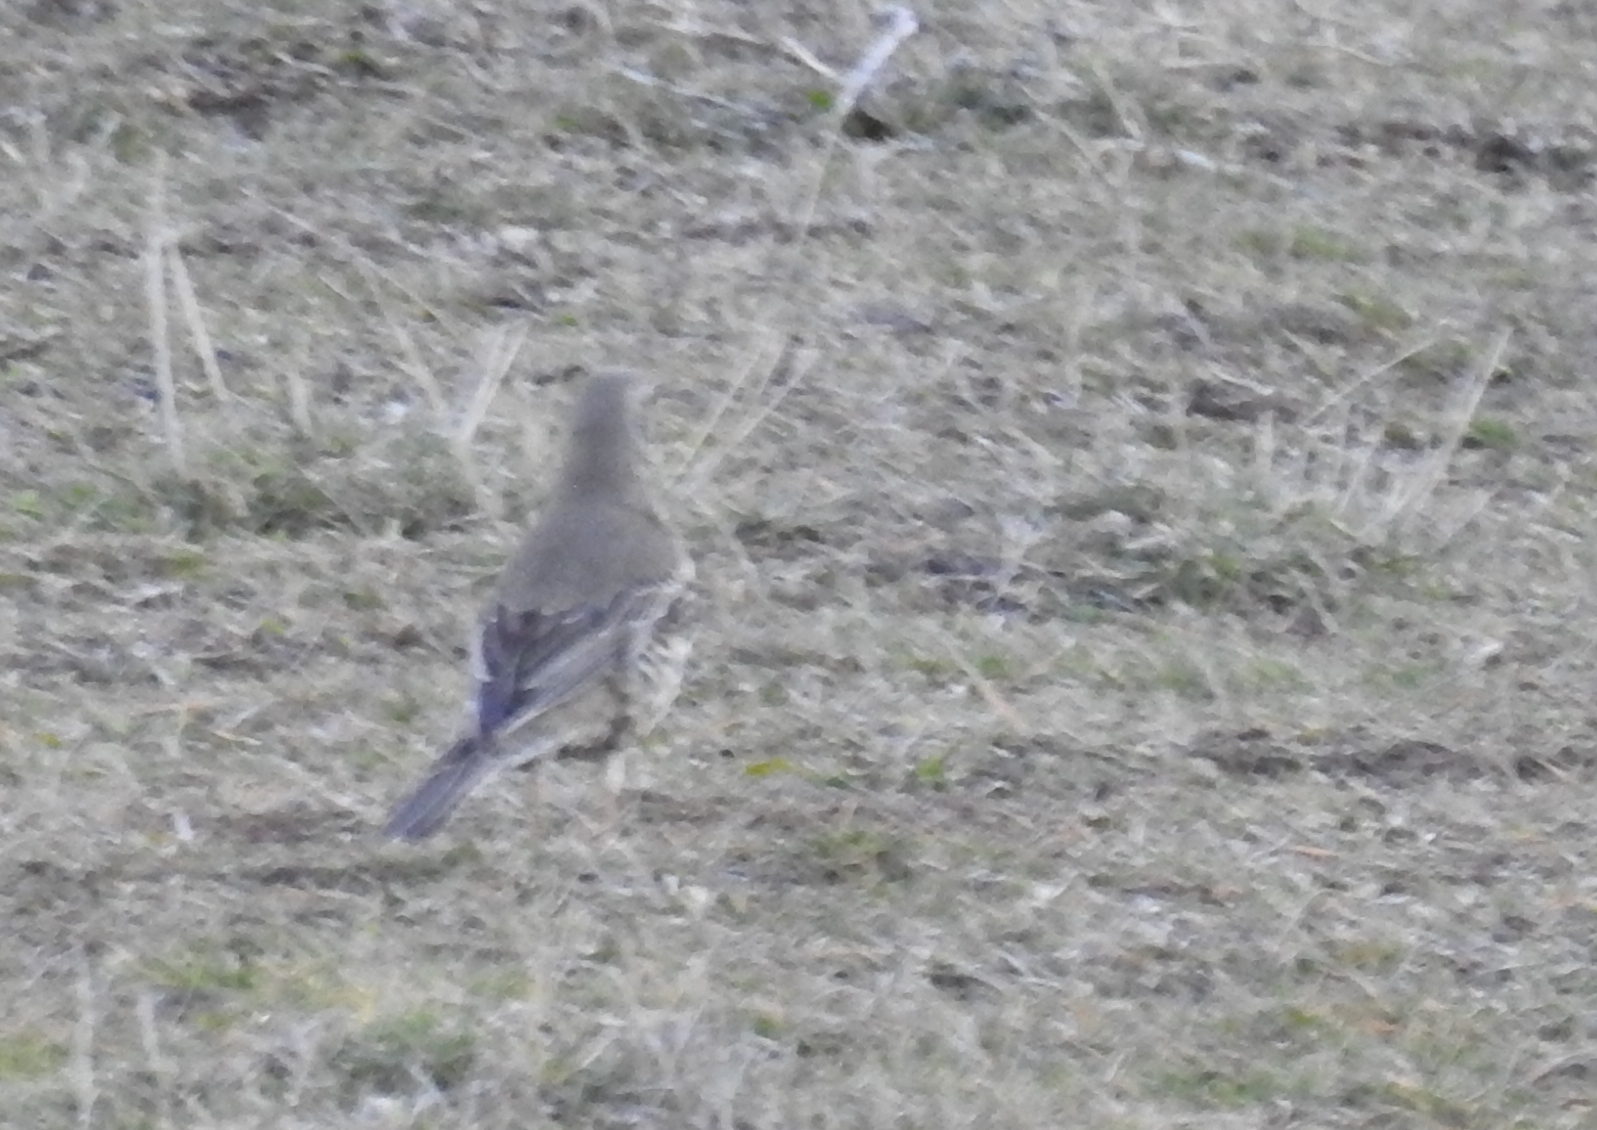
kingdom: Animalia
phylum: Chordata
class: Aves
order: Passeriformes
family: Turdidae
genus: Turdus
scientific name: Turdus viscivorus
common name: Mistle thrush
